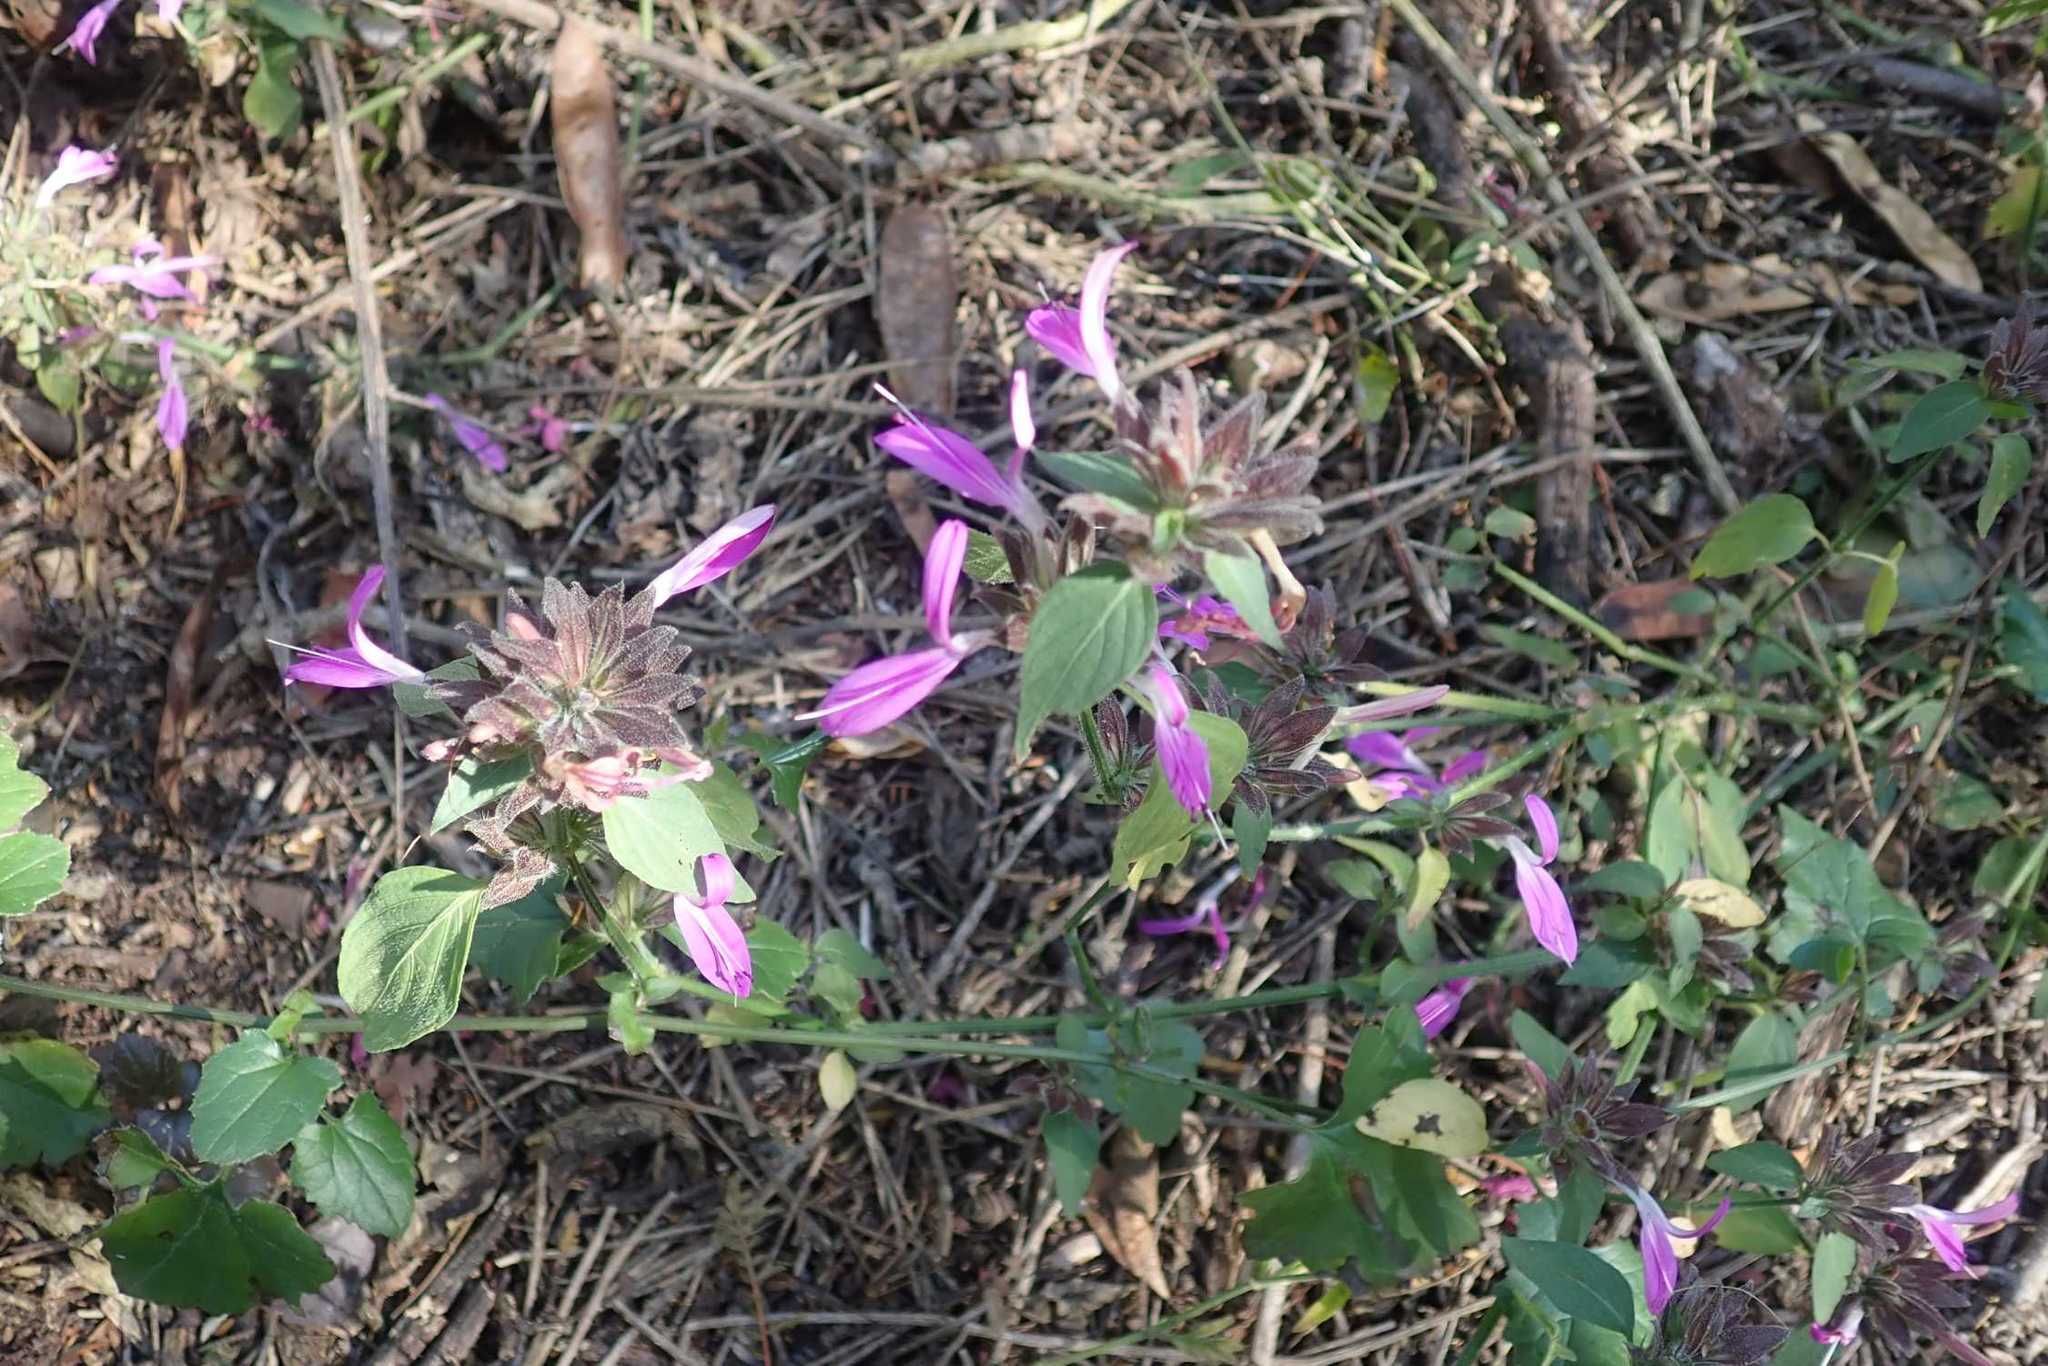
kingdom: Plantae
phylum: Tracheophyta
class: Magnoliopsida
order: Lamiales
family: Acanthaceae
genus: Dicliptera
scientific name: Dicliptera clinopodia
